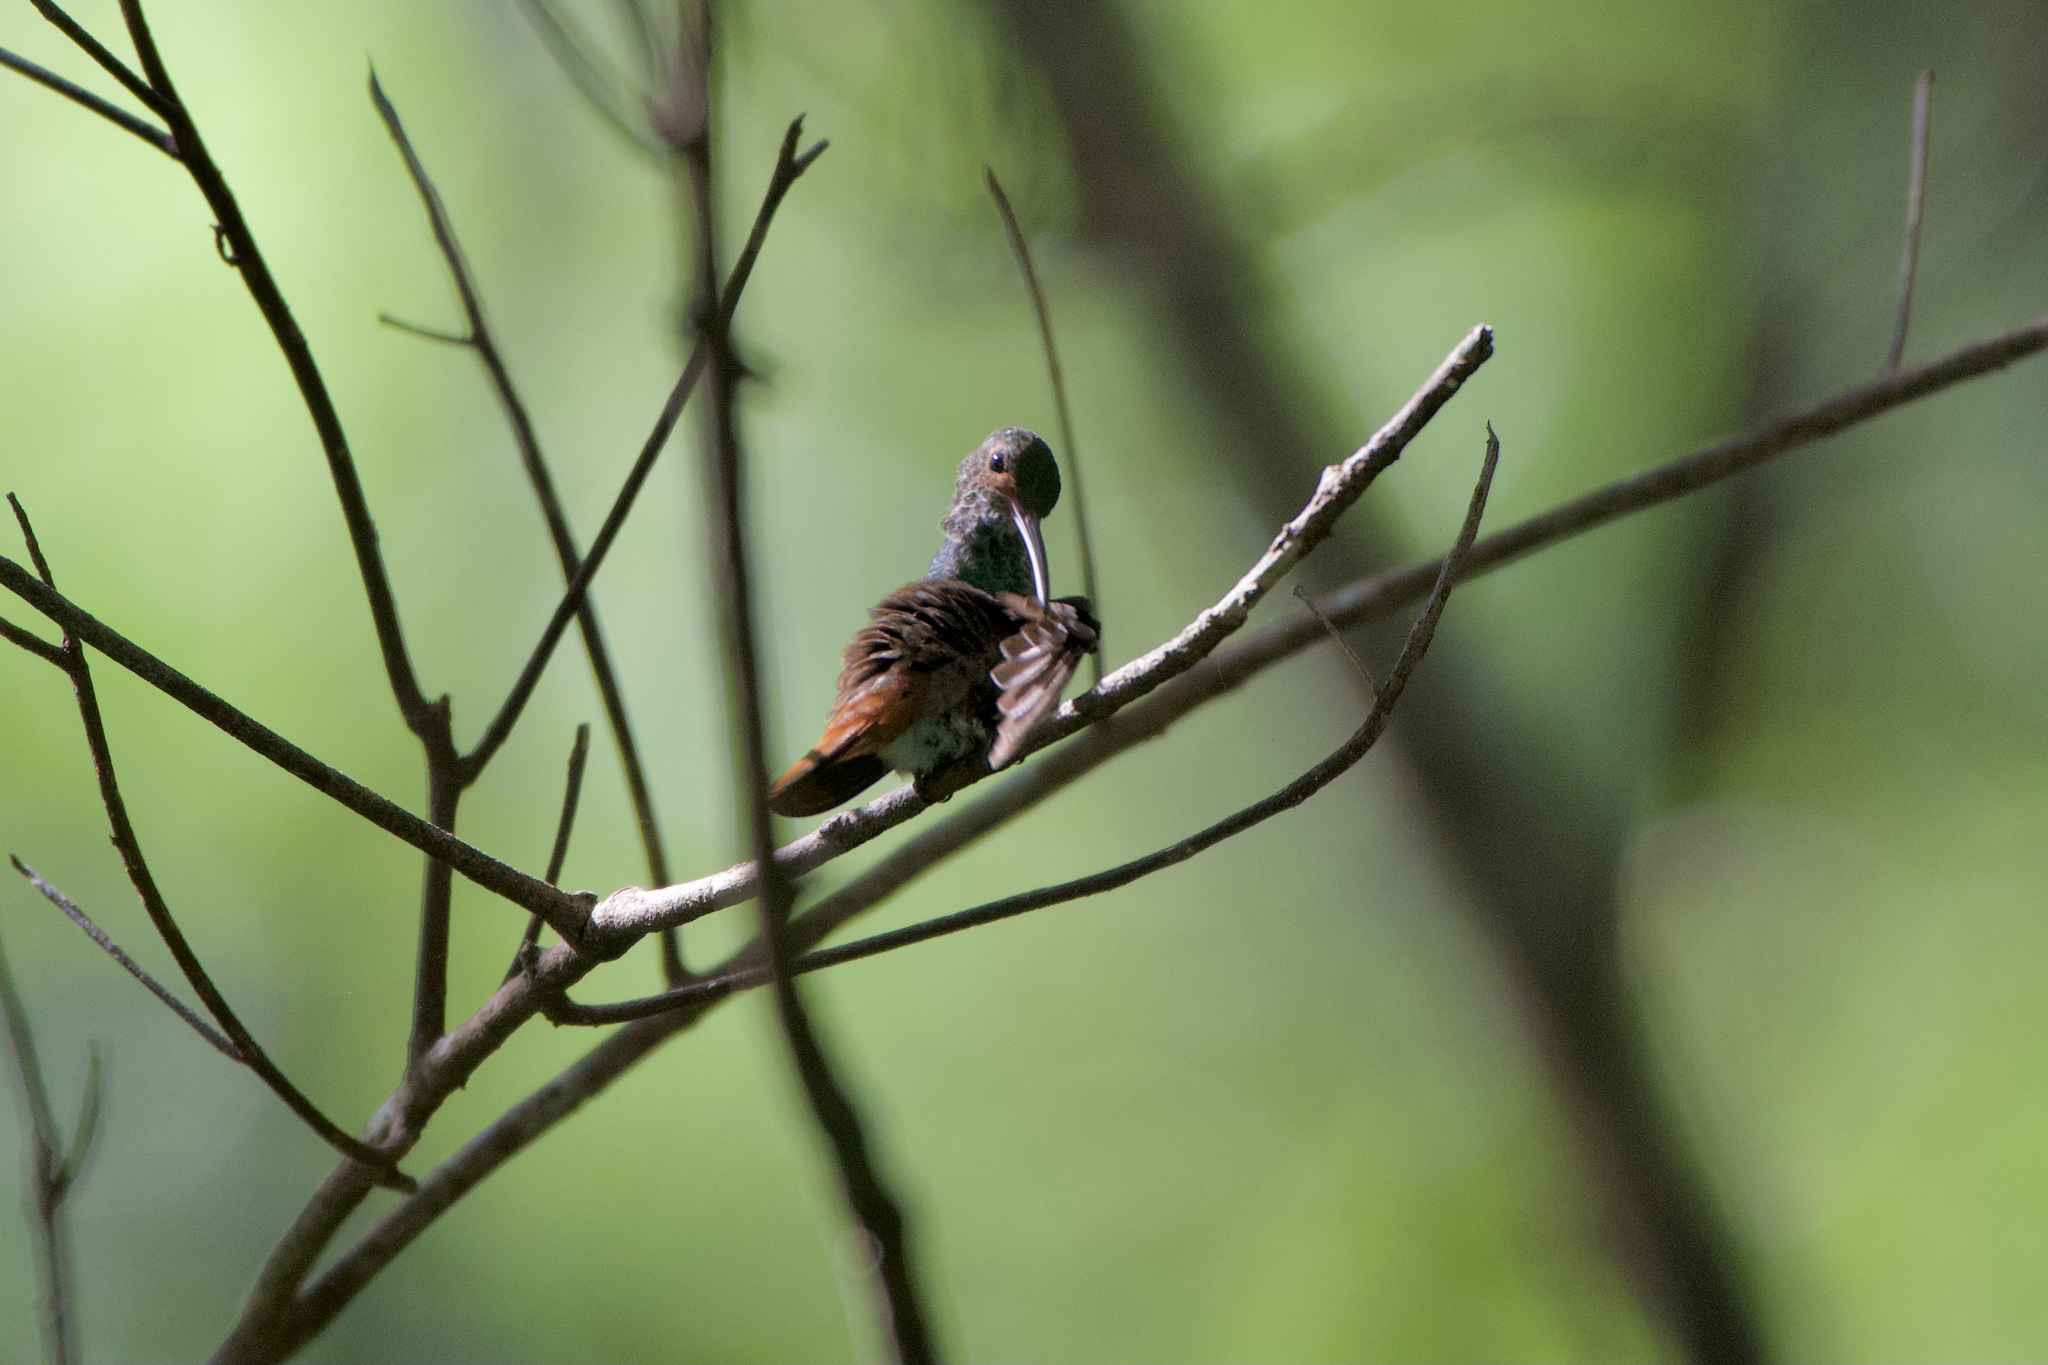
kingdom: Animalia
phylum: Chordata
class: Aves
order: Apodiformes
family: Trochilidae
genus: Amazilia
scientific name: Amazilia tzacatl
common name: Rufous-tailed hummingbird
